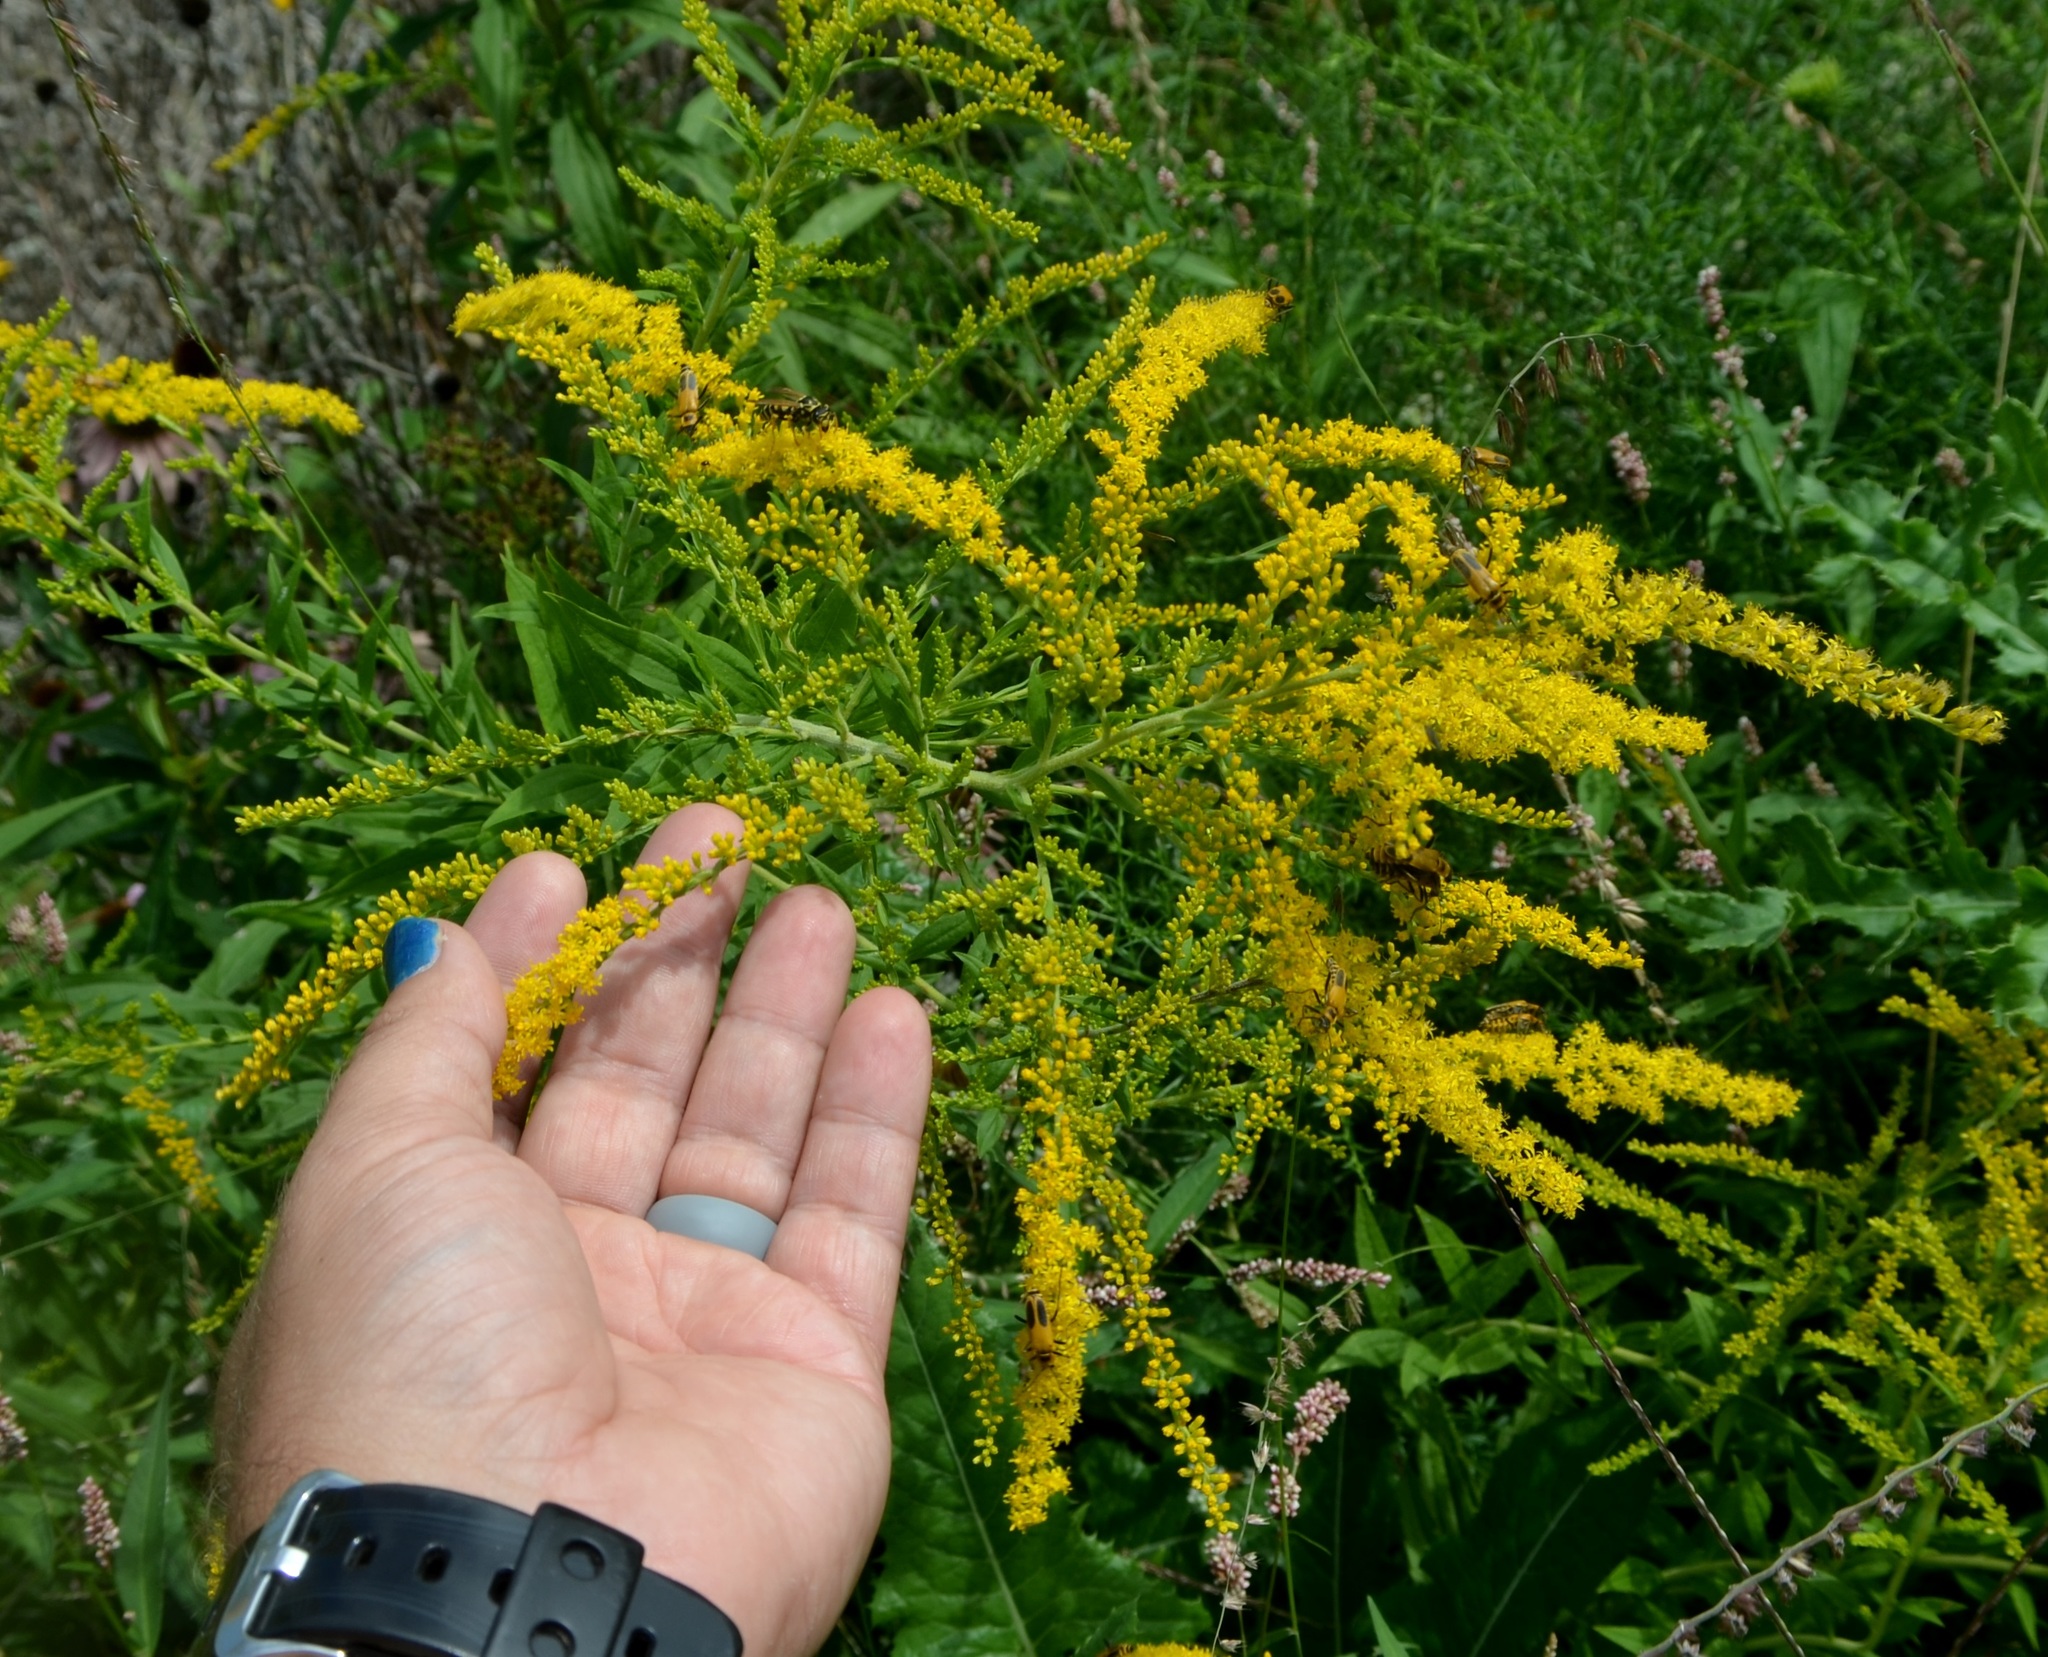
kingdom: Plantae
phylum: Tracheophyta
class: Magnoliopsida
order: Asterales
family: Asteraceae
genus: Solidago
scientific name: Solidago canadensis
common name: Canada goldenrod
